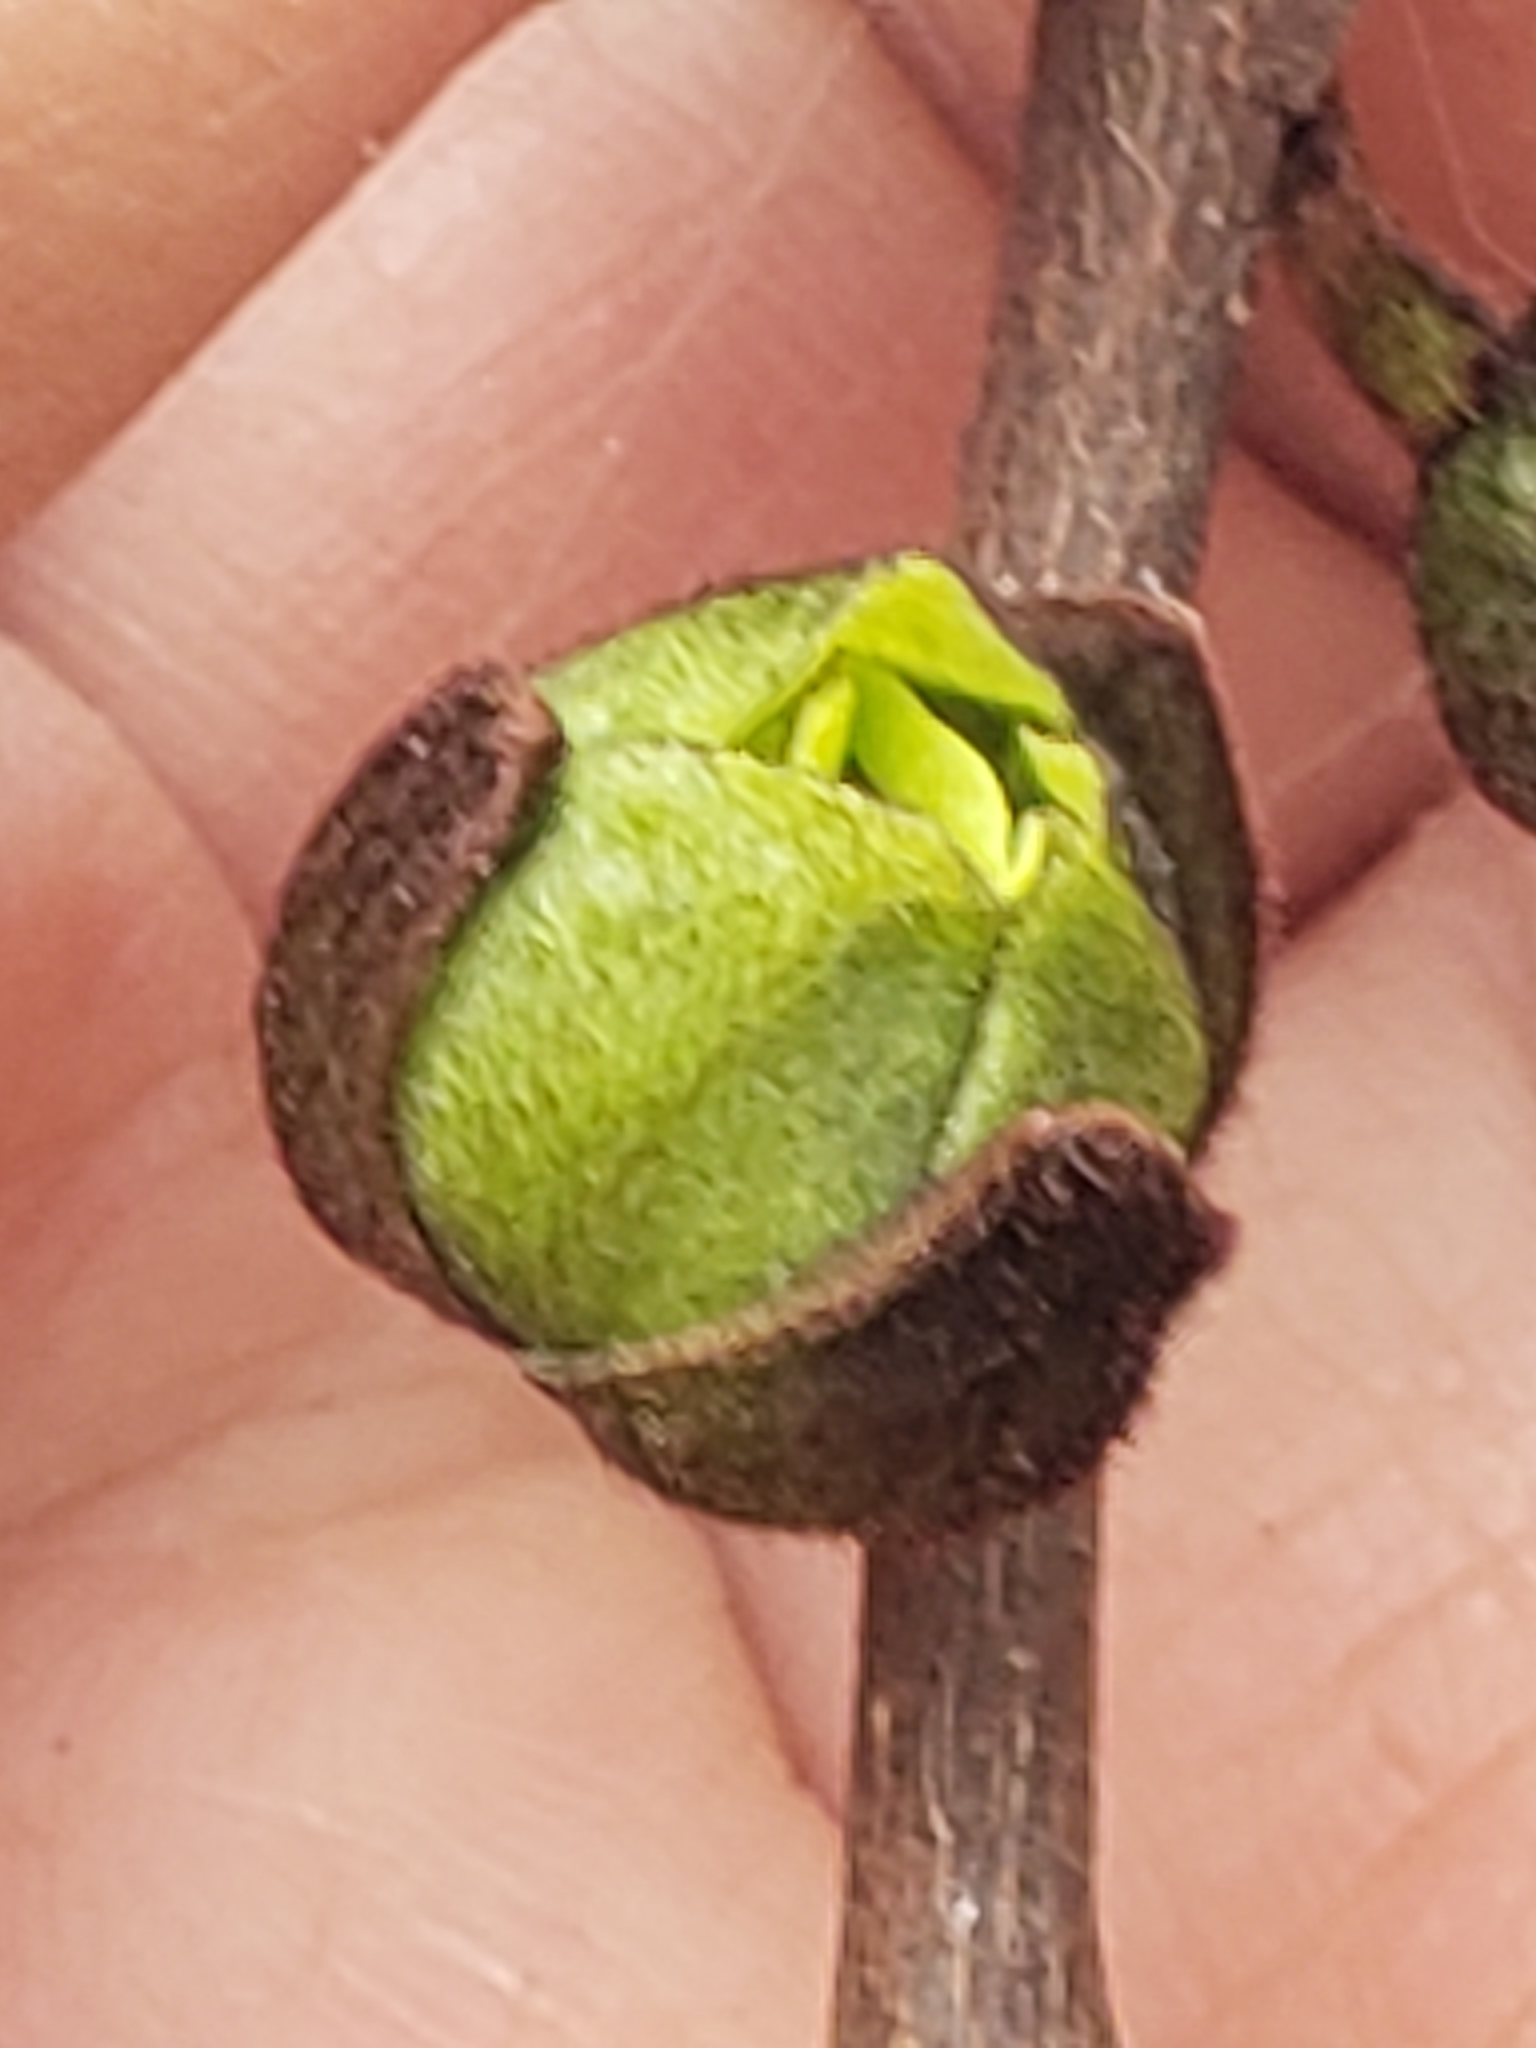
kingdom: Plantae
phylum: Tracheophyta
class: Magnoliopsida
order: Magnoliales
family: Annonaceae
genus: Asimina
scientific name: Asimina triloba
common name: Dog-banana
